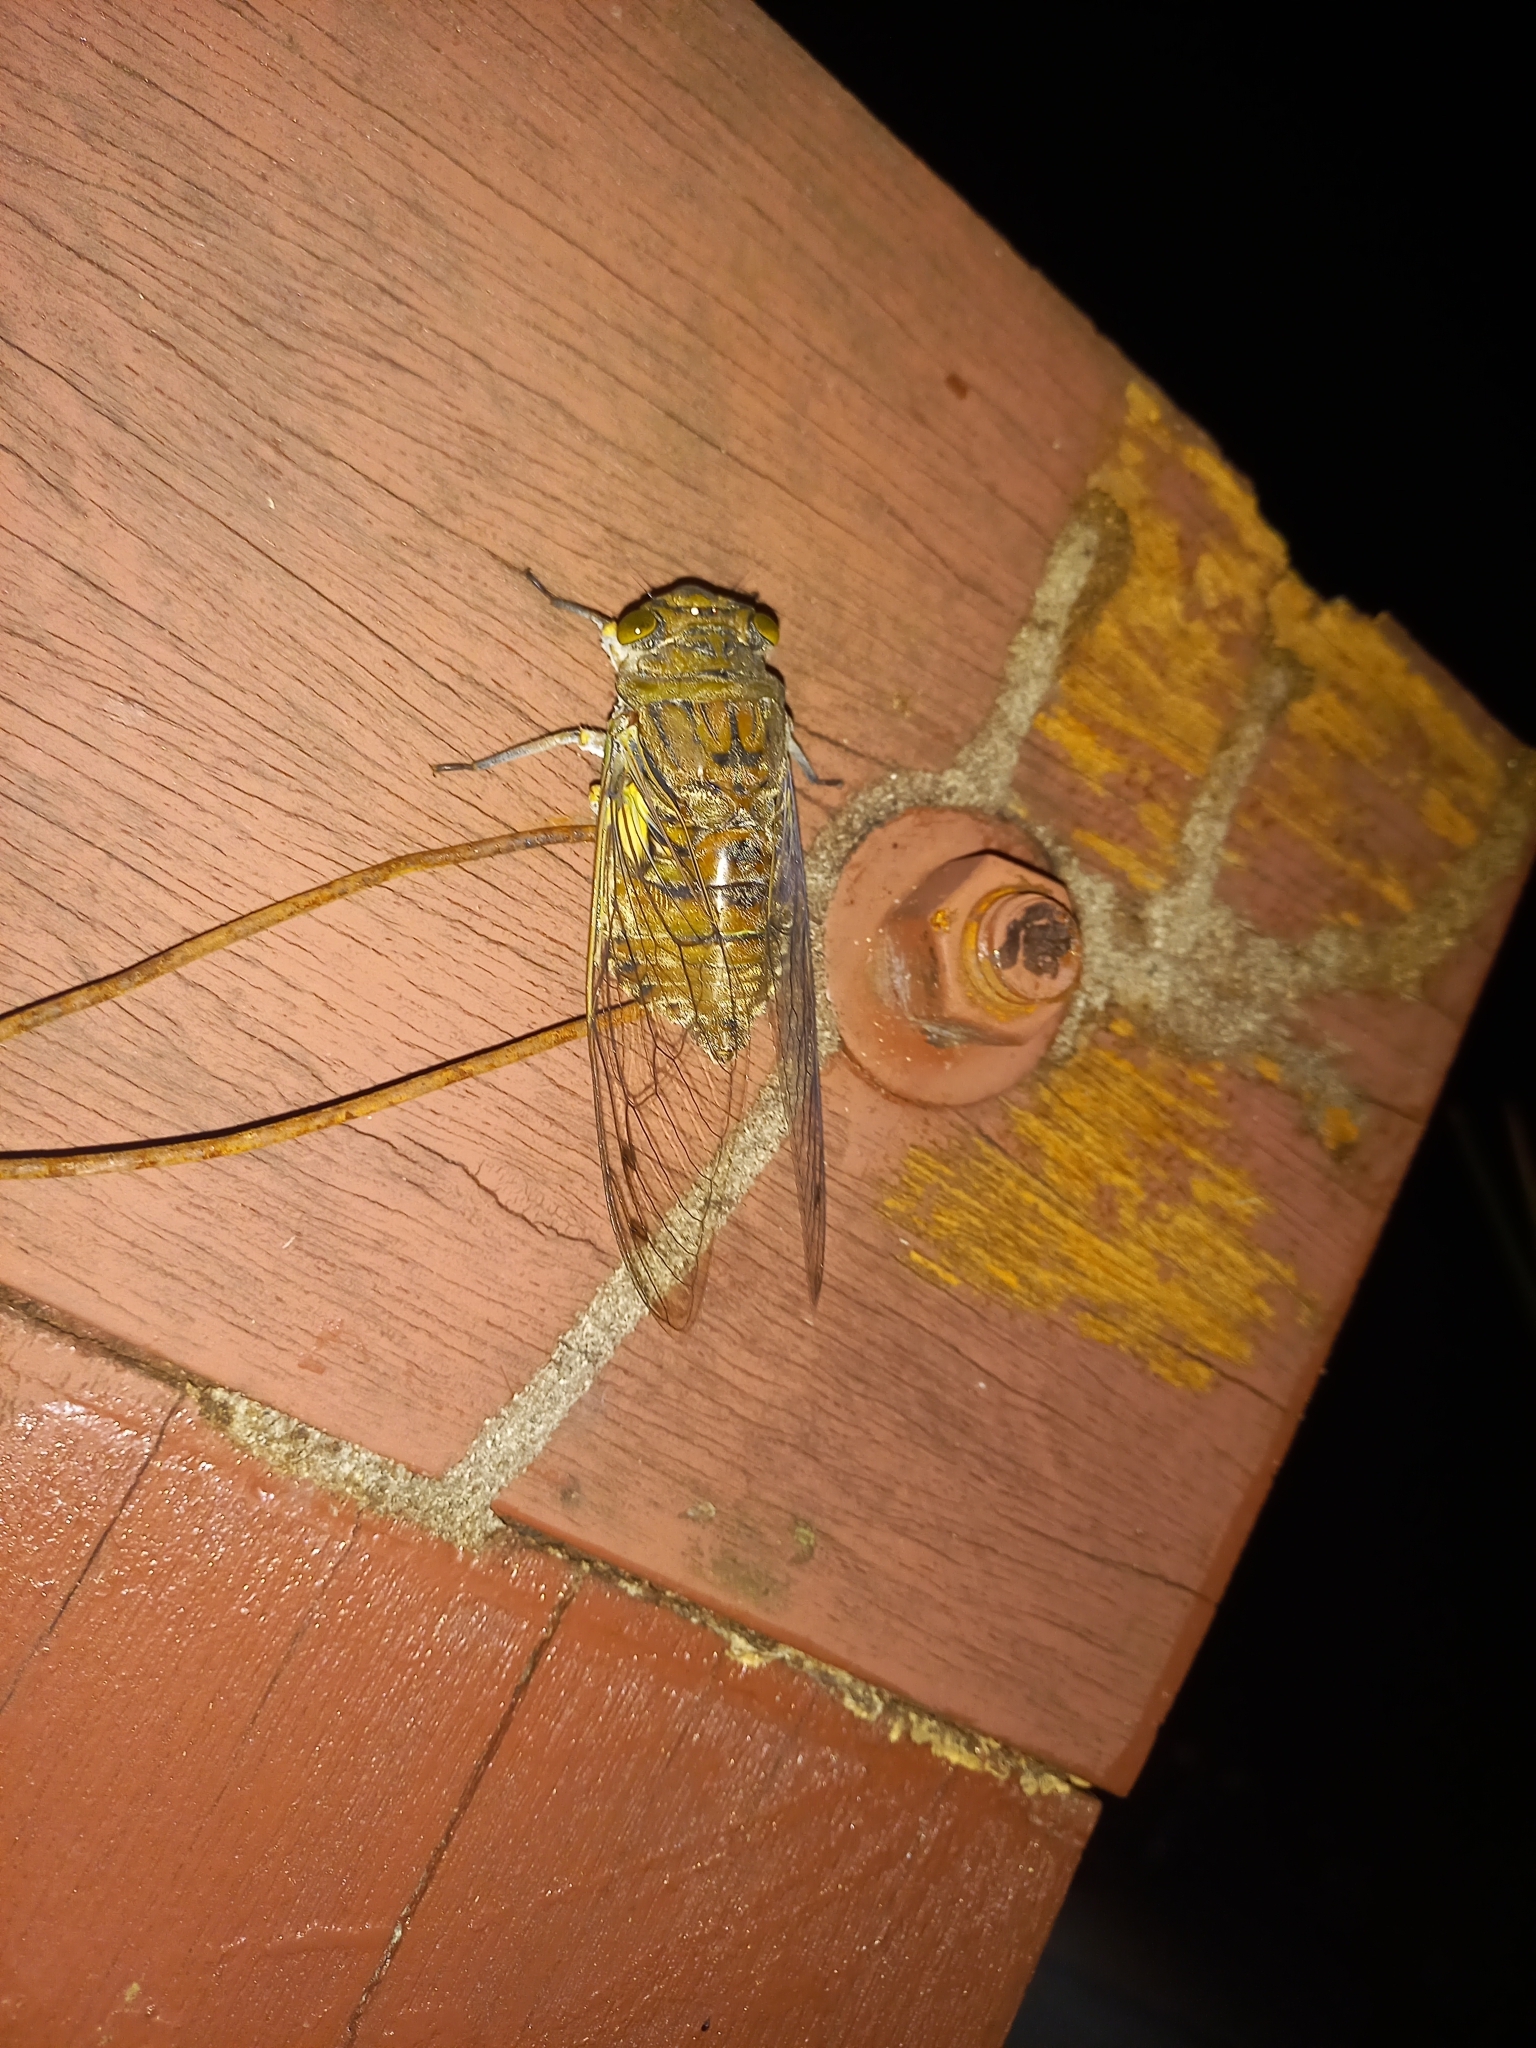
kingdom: Animalia
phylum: Arthropoda
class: Insecta
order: Hemiptera
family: Cicadidae
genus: Quesada
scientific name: Quesada gigas
